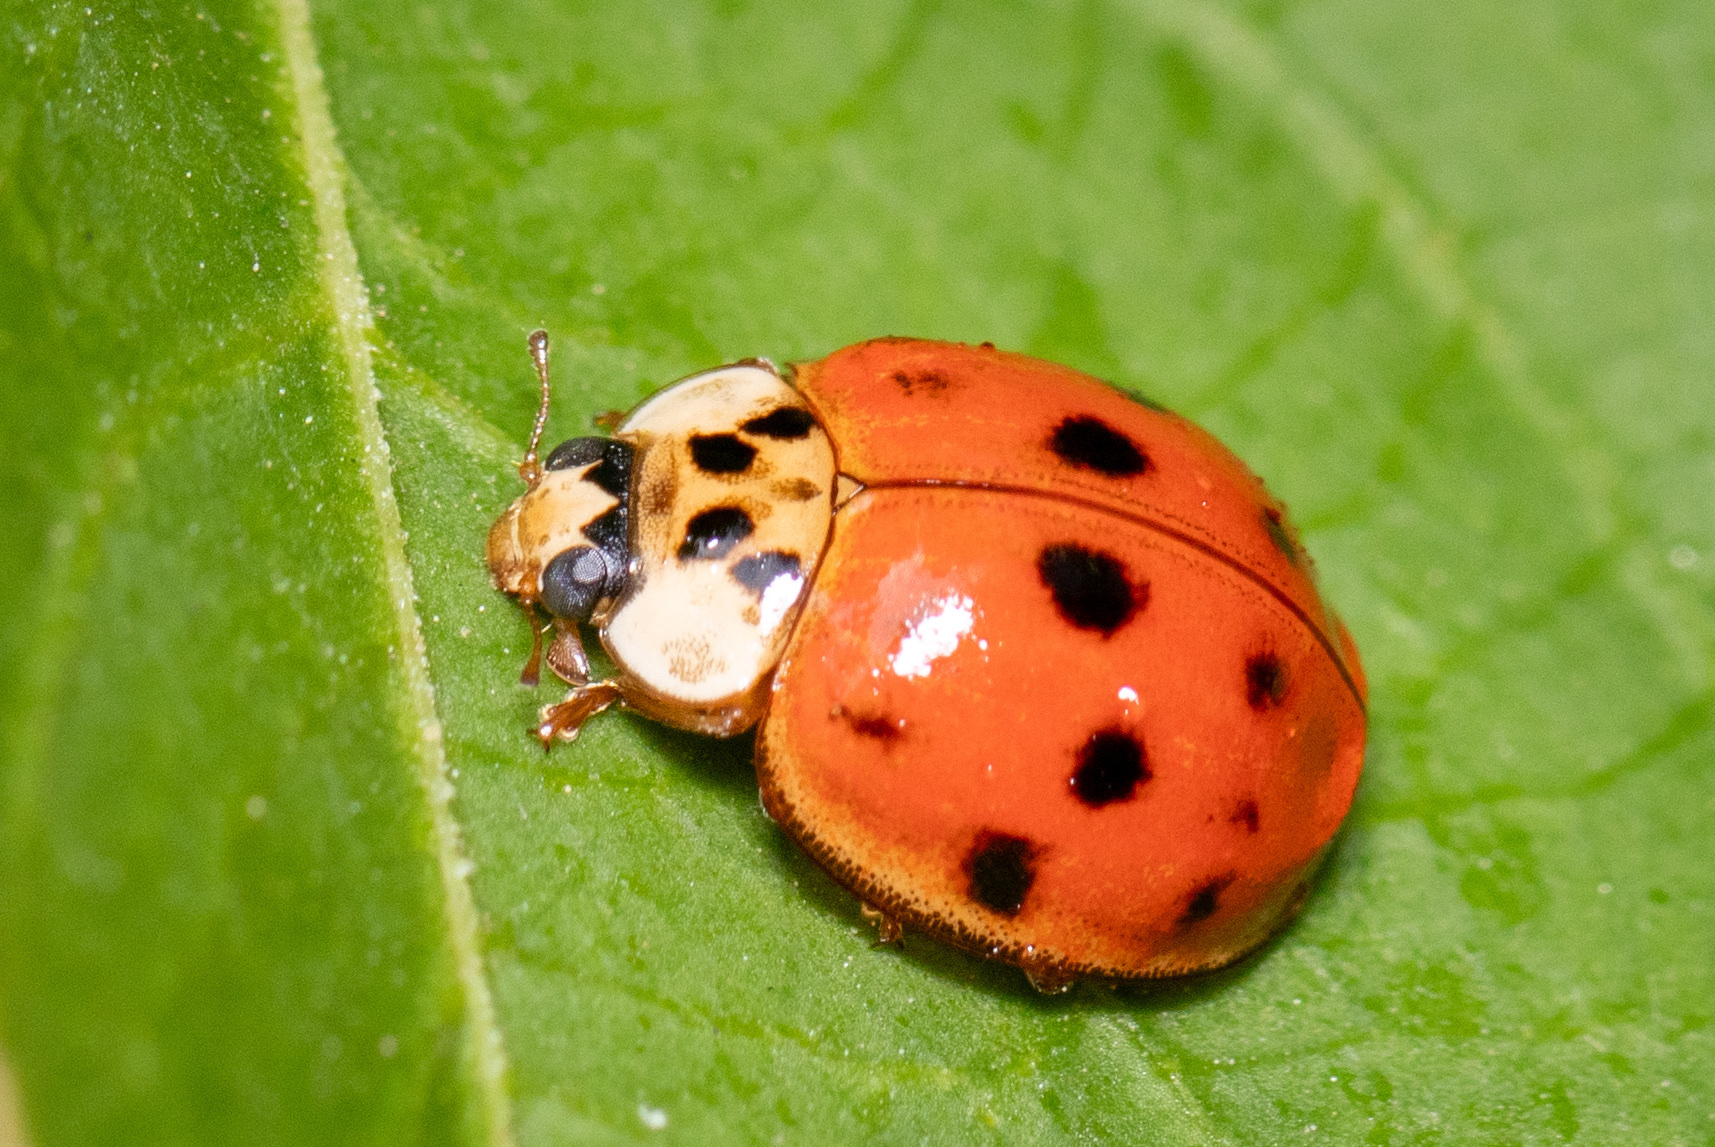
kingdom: Animalia
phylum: Arthropoda
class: Insecta
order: Coleoptera
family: Coccinellidae
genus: Harmonia
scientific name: Harmonia axyridis
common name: Harlequin ladybird
